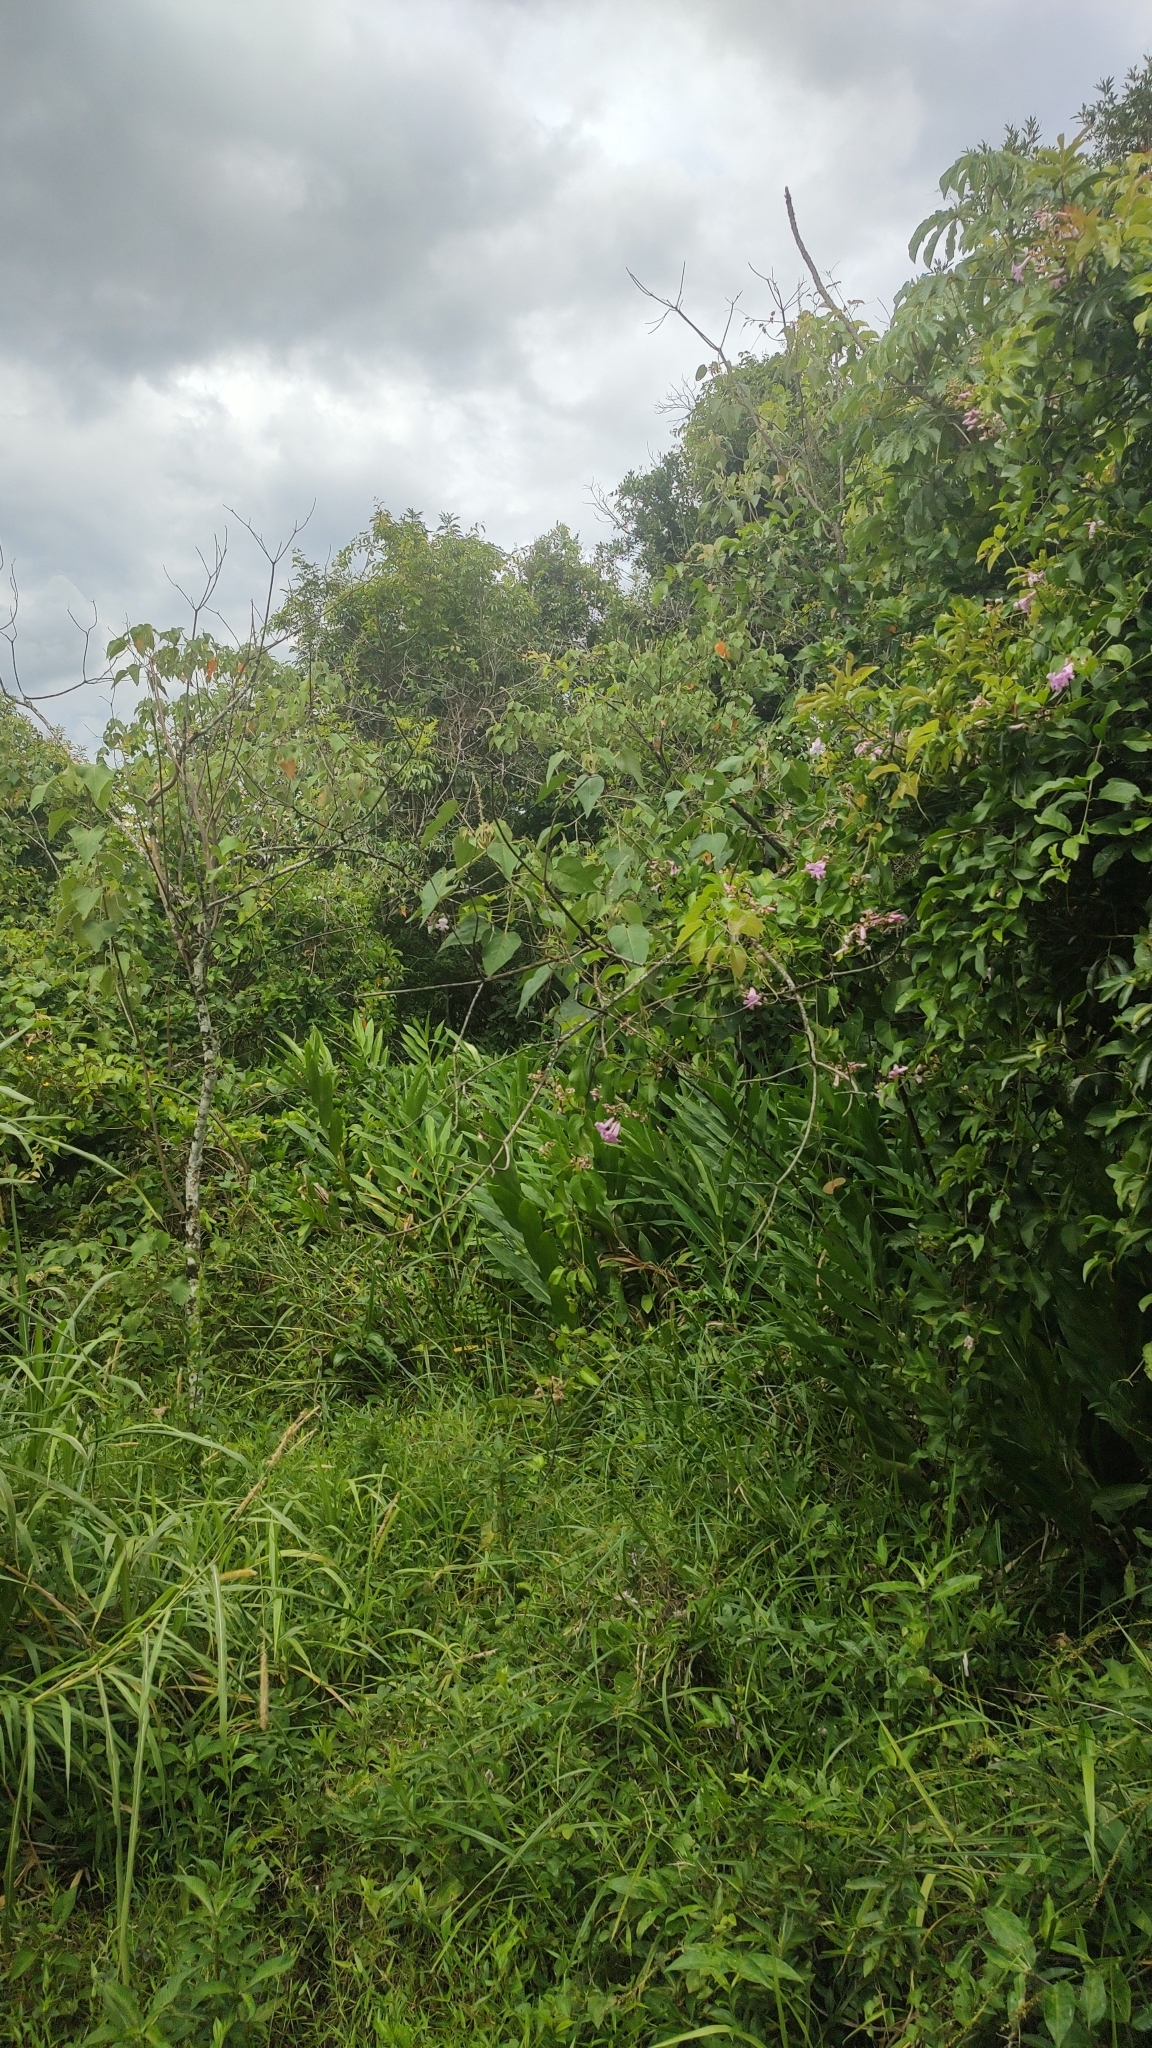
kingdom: Plantae
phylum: Tracheophyta
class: Liliopsida
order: Zingiberales
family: Zingiberaceae
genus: Hedychium
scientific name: Hedychium coronarium
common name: White garland-lily
